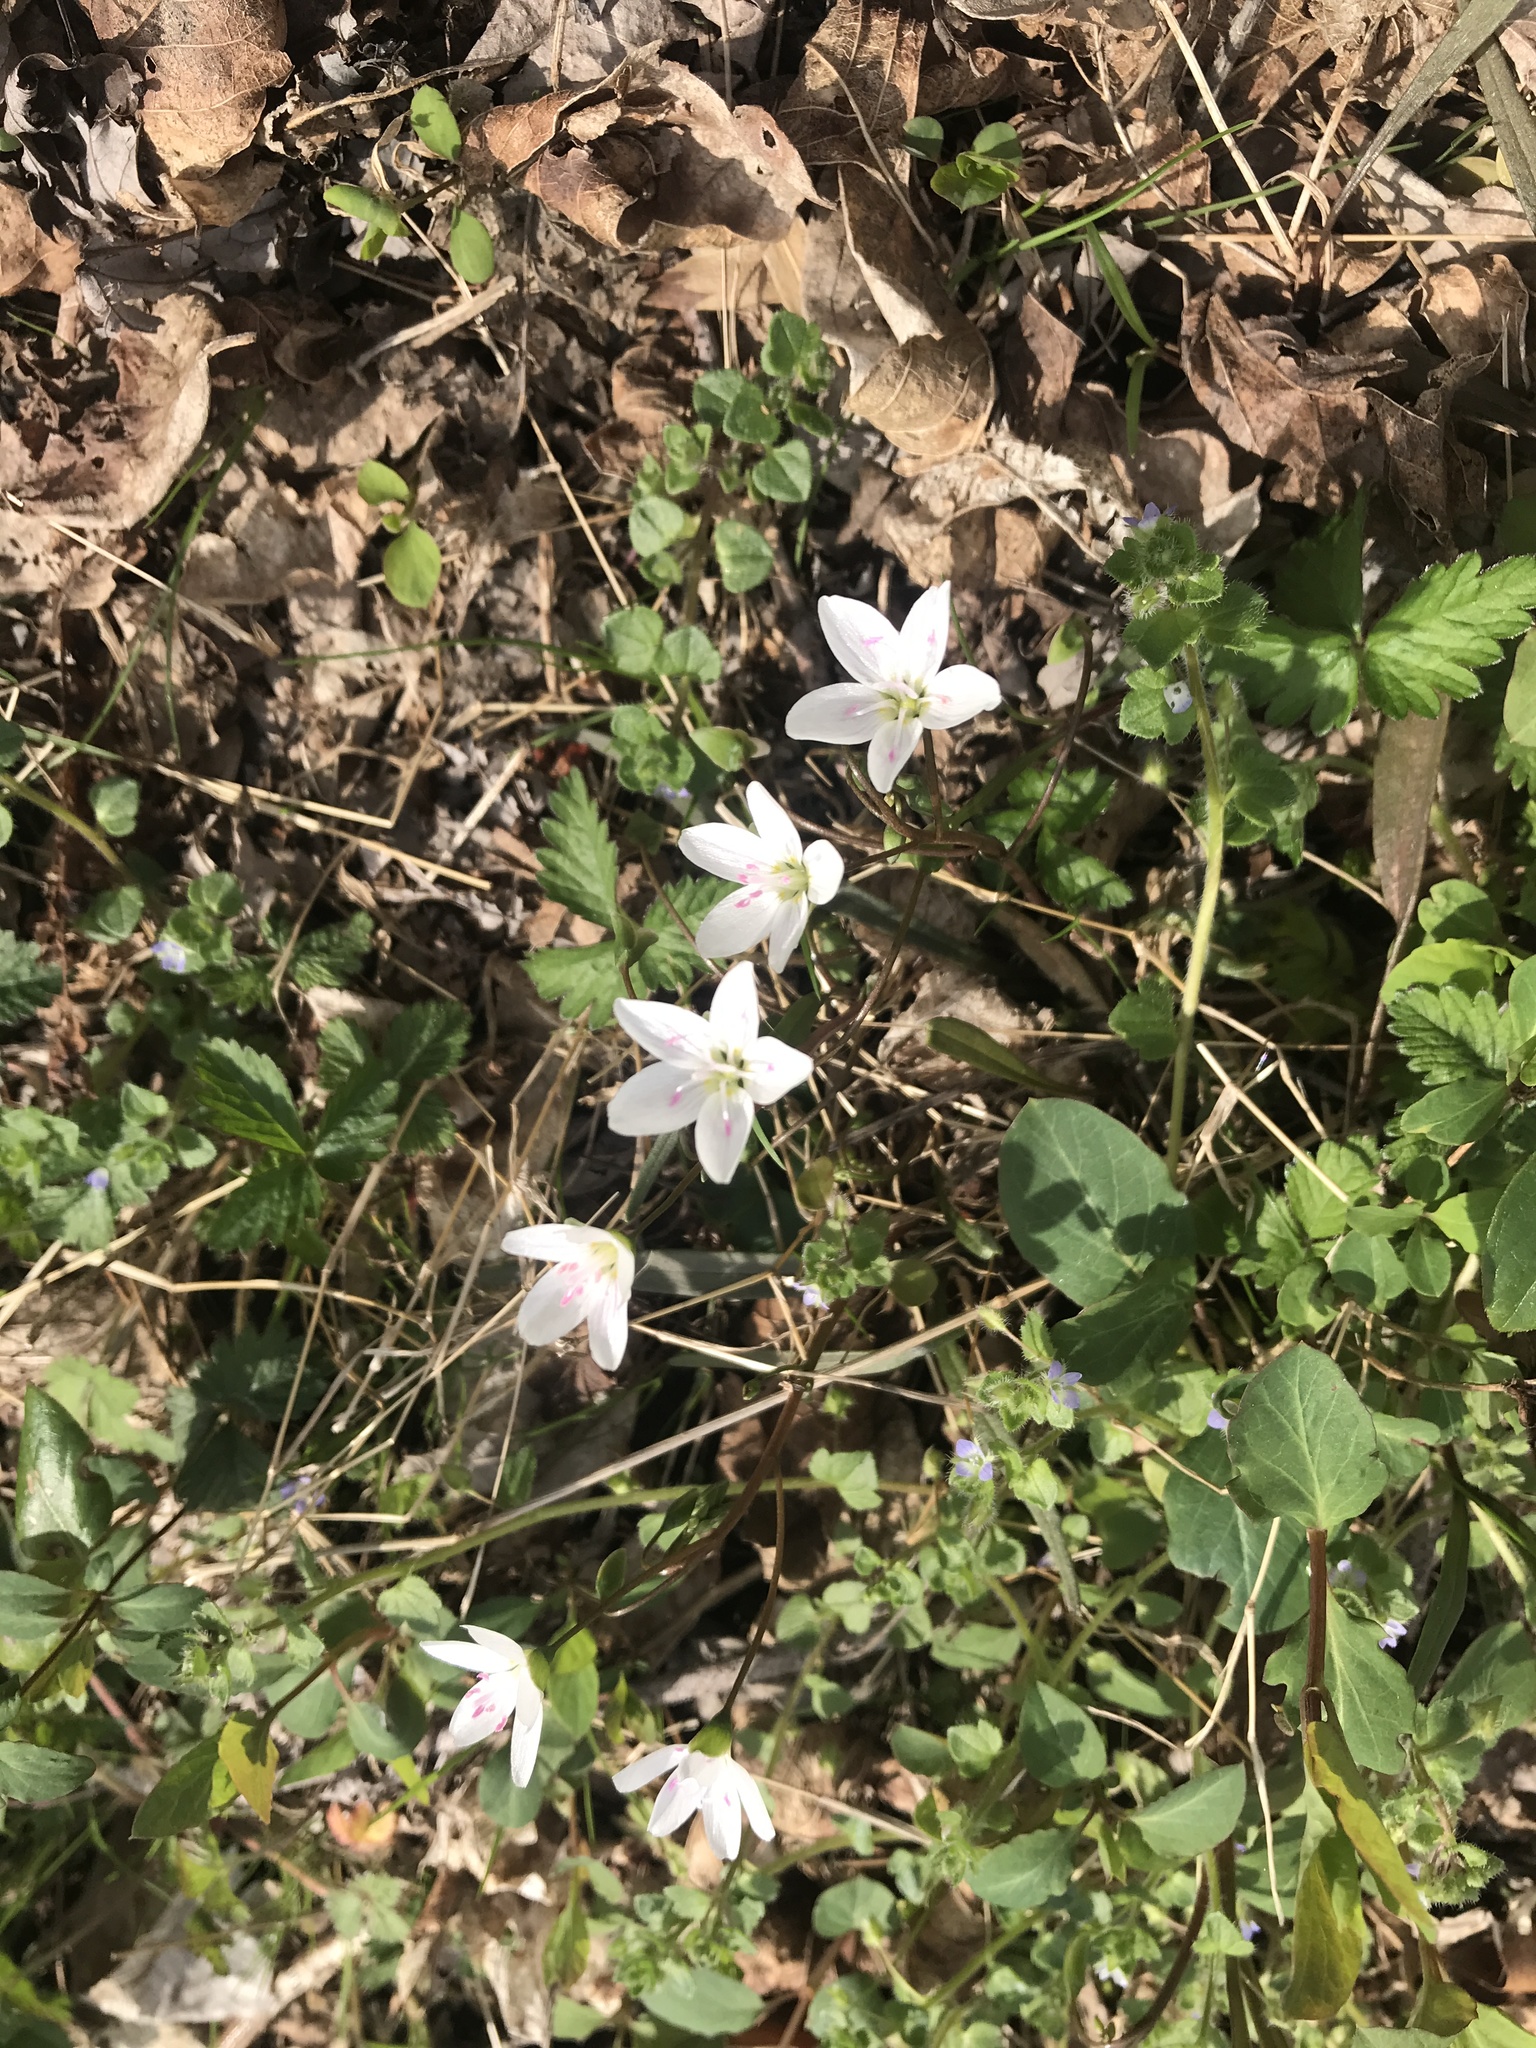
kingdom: Plantae
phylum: Tracheophyta
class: Magnoliopsida
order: Caryophyllales
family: Montiaceae
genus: Claytonia
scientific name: Claytonia virginica
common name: Virginia springbeauty
